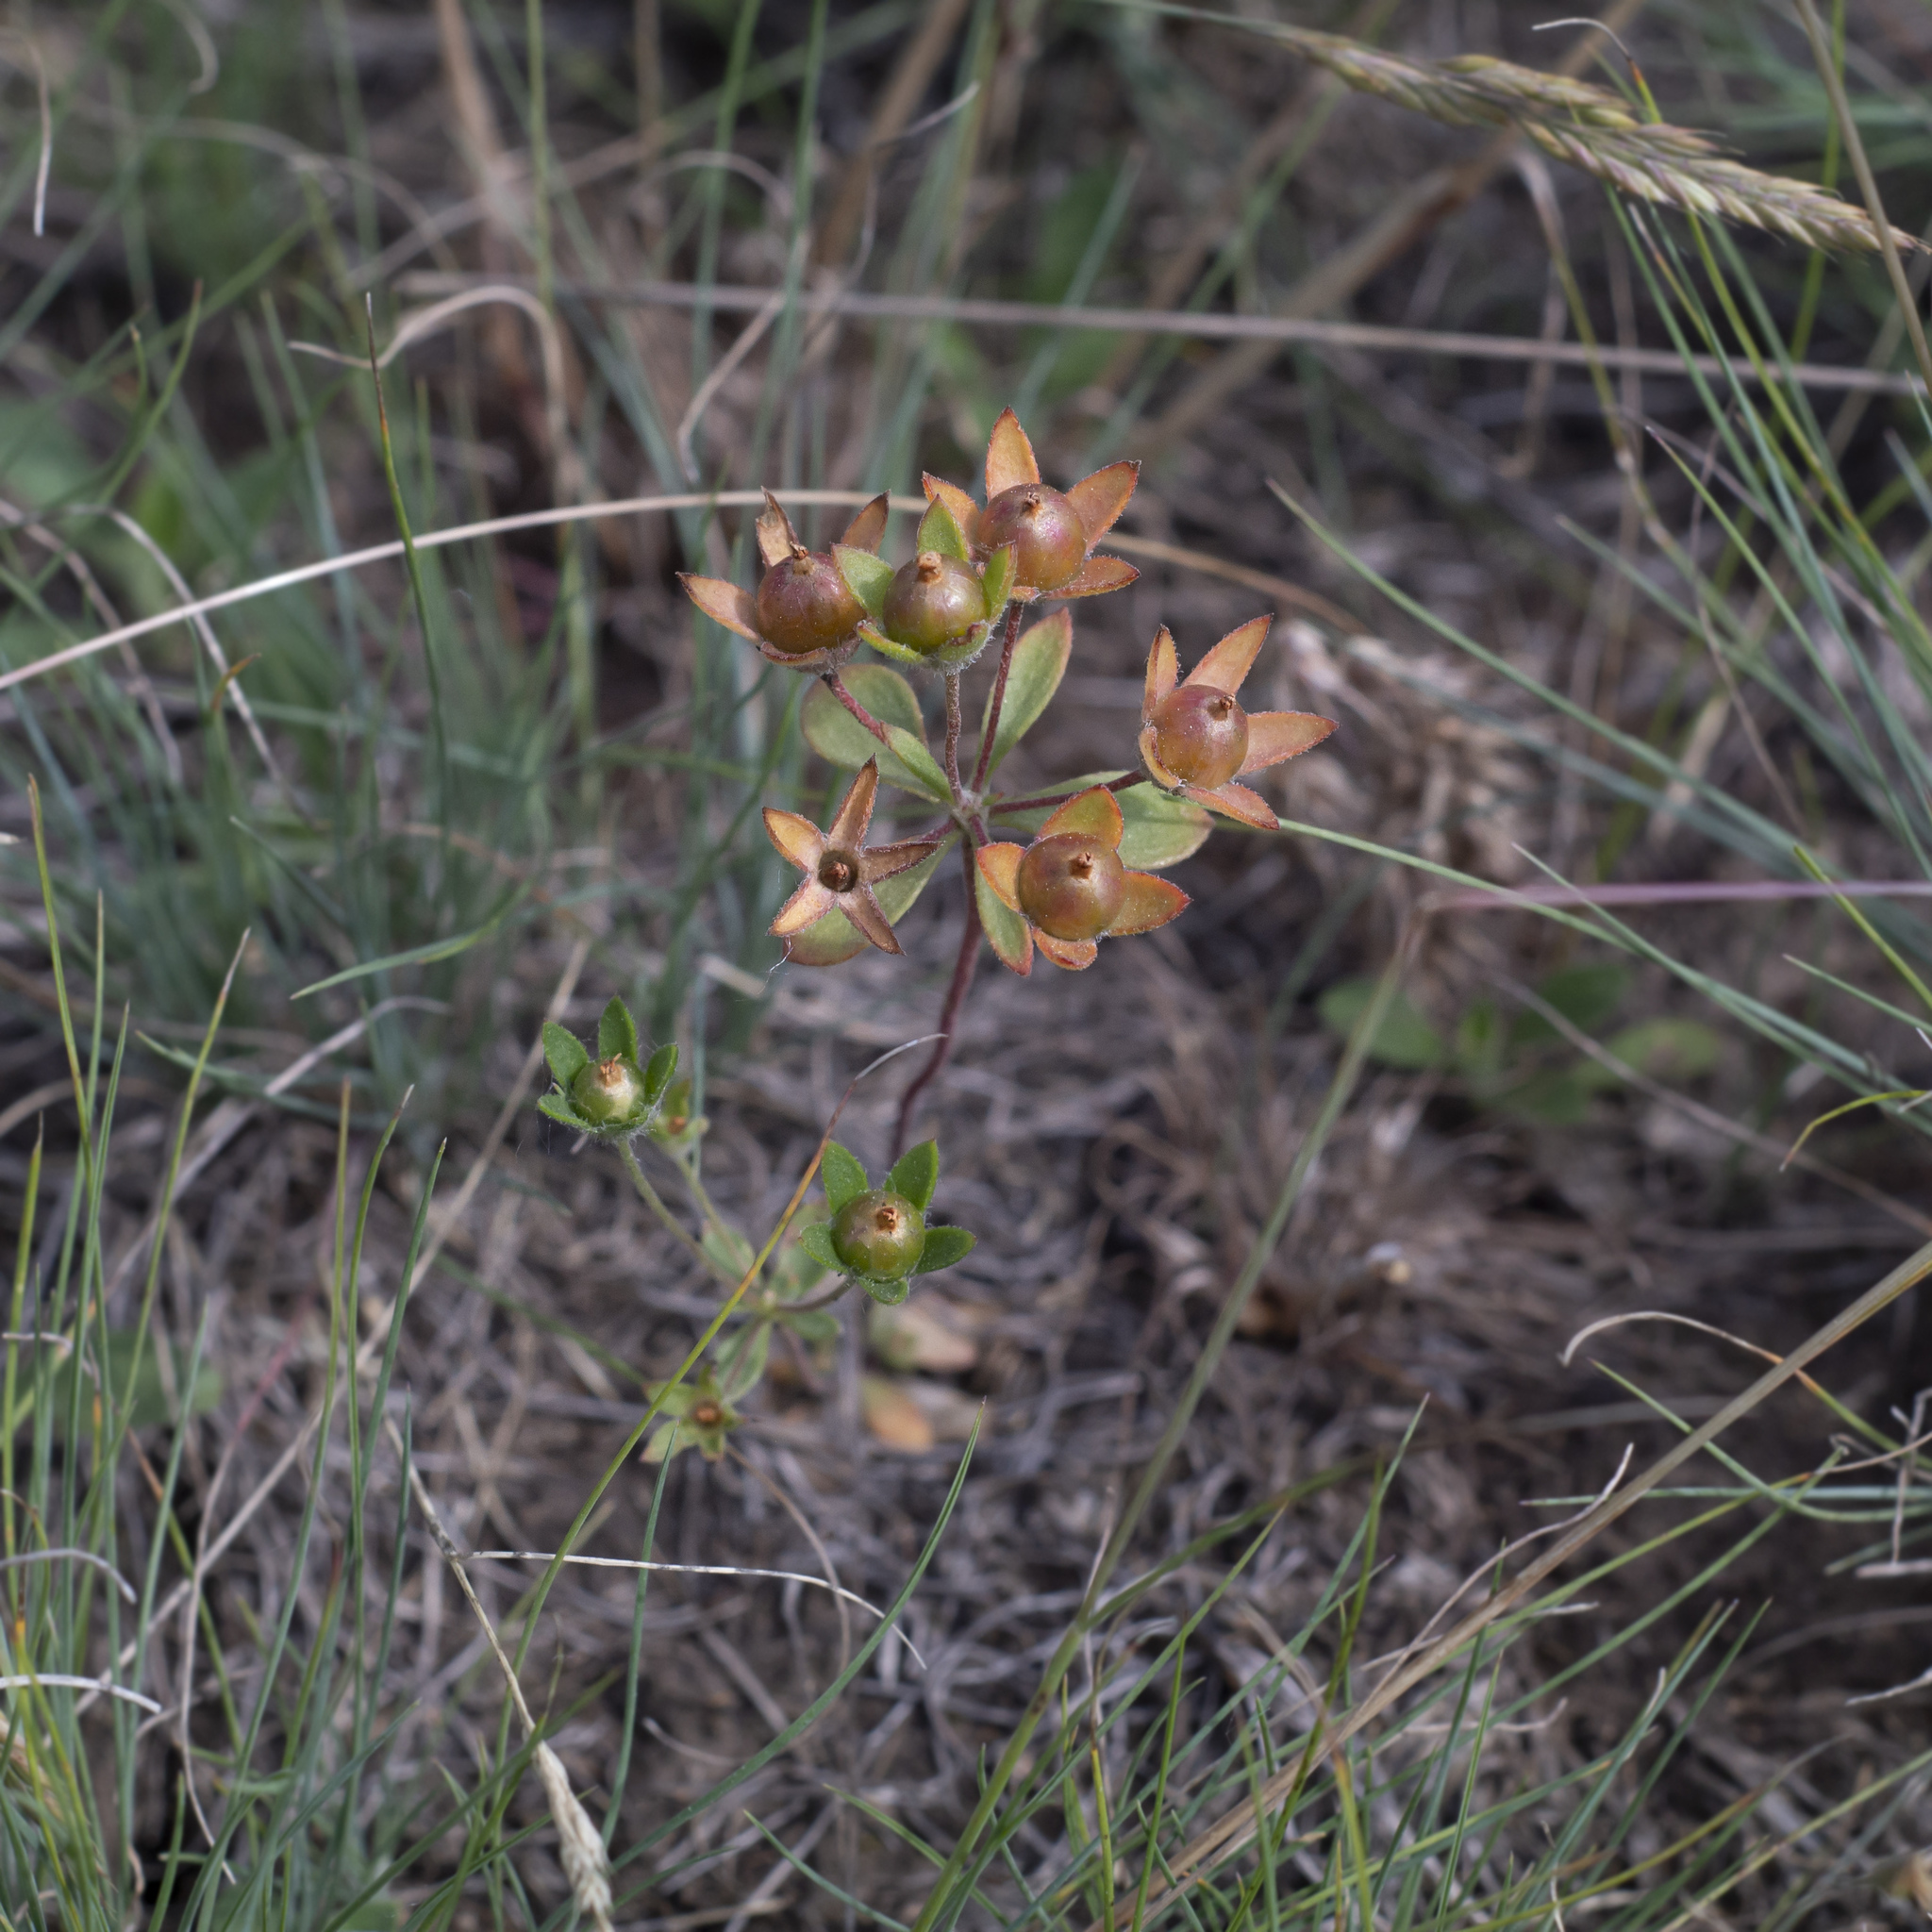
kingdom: Plantae
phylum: Tracheophyta
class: Magnoliopsida
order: Ericales
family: Primulaceae
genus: Androsace
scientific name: Androsace maxima
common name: Annual androsace
